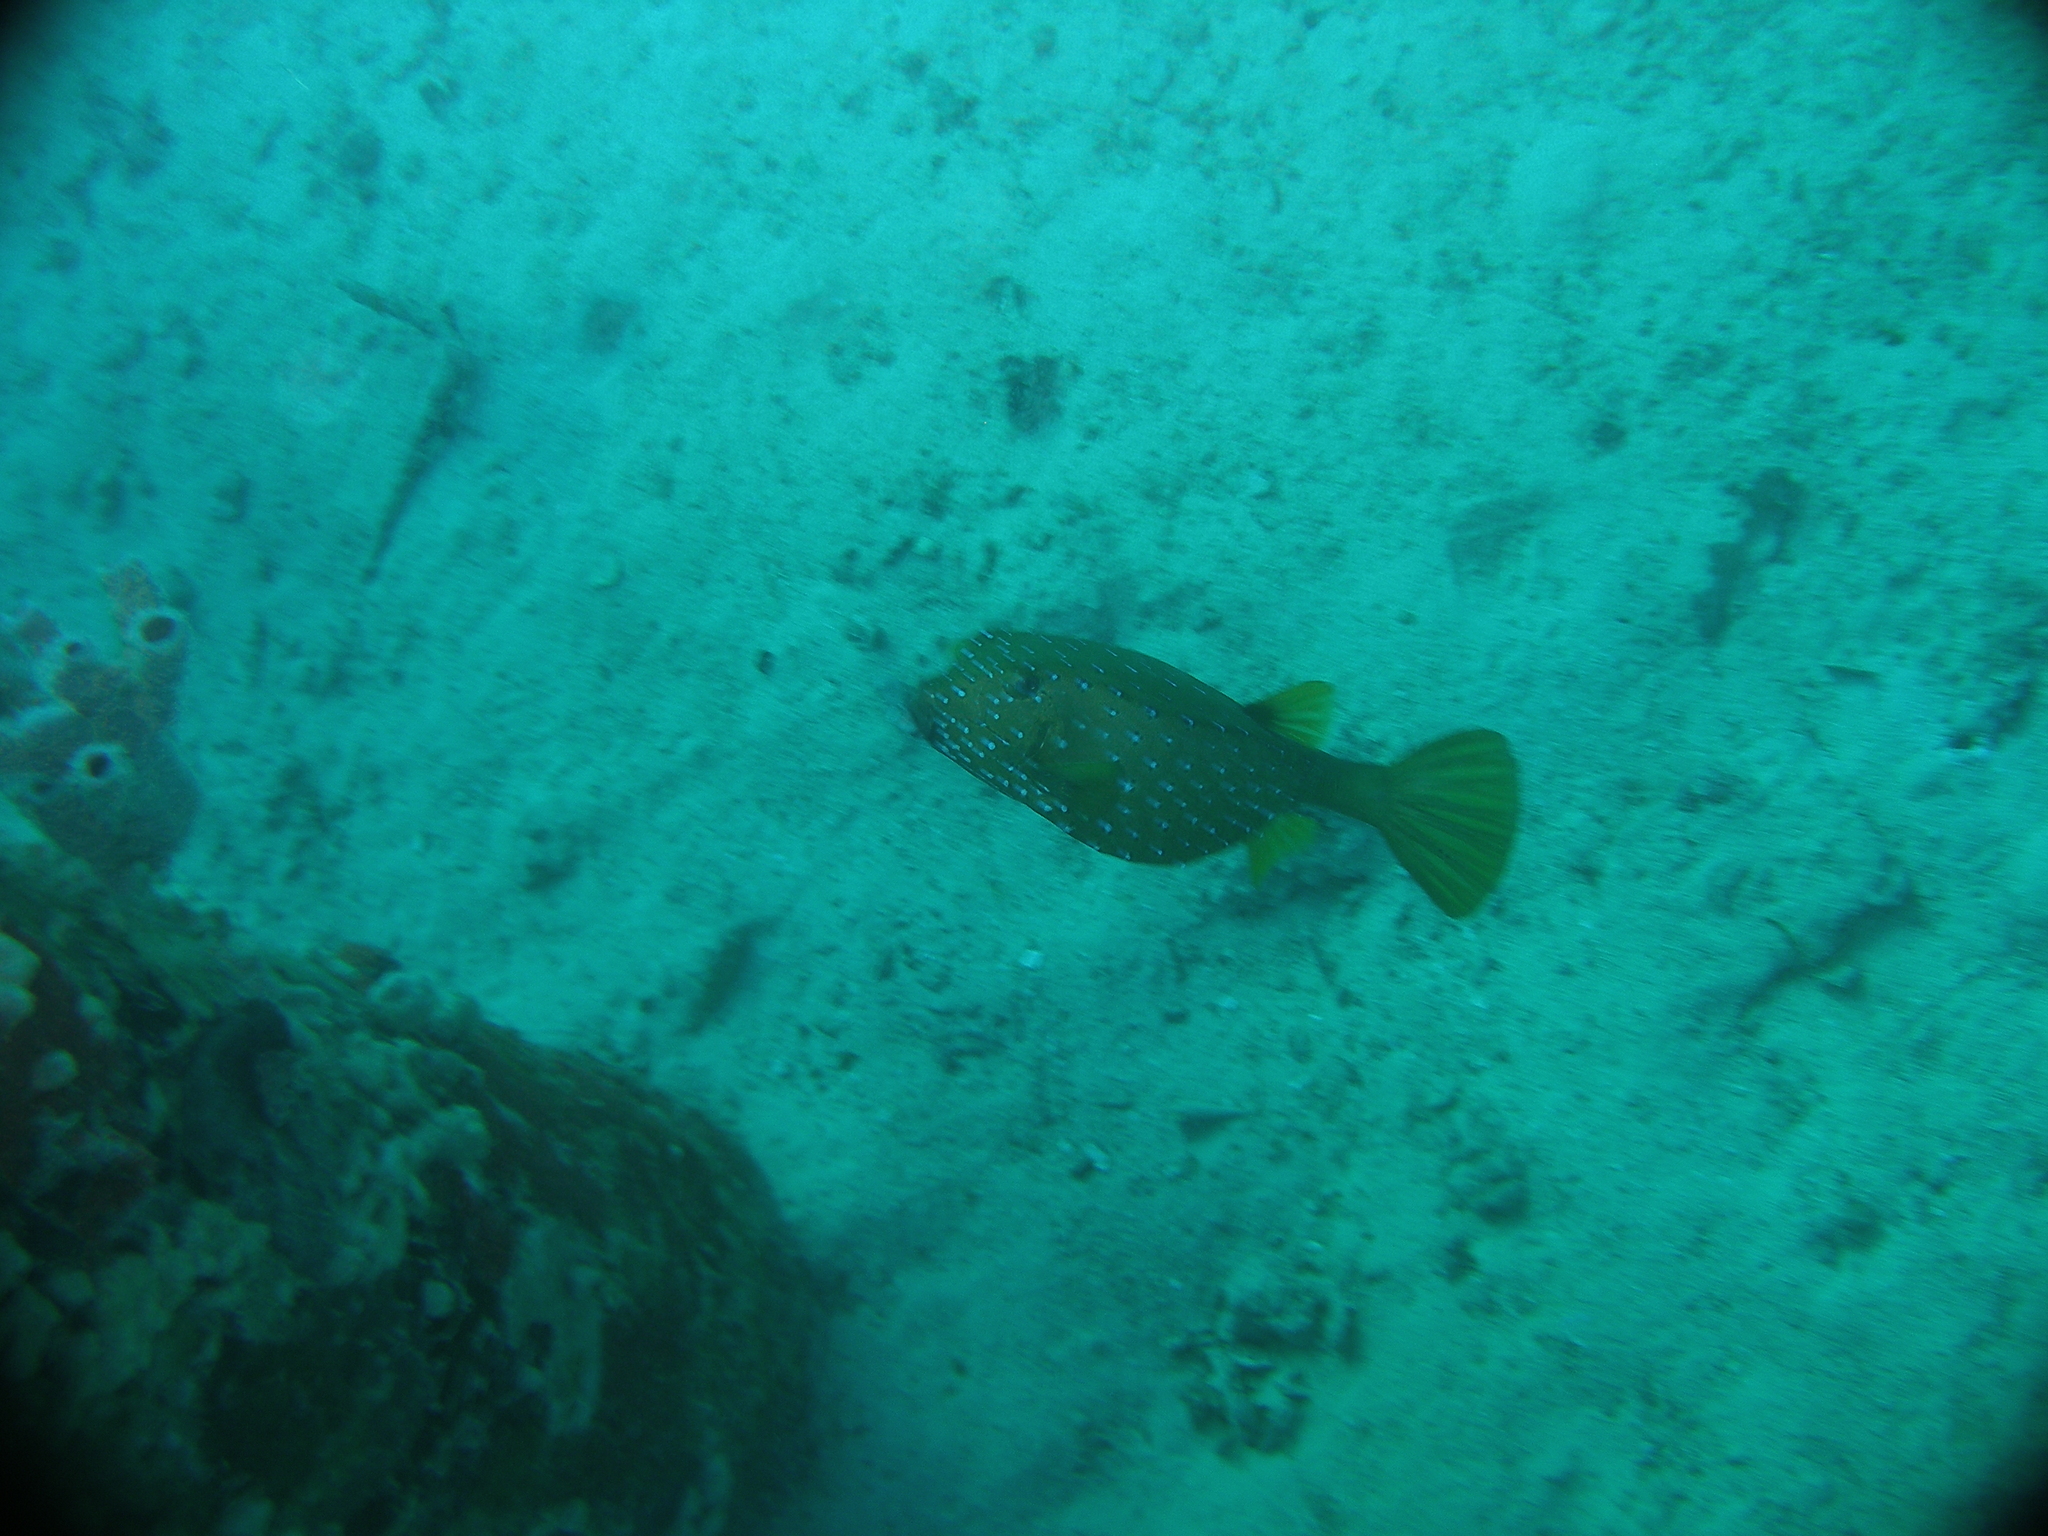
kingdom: Animalia
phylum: Chordata
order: Tetraodontiformes
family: Ostraciidae
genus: Ostracion
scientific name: Ostracion cubicus
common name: Cube trunkfish
